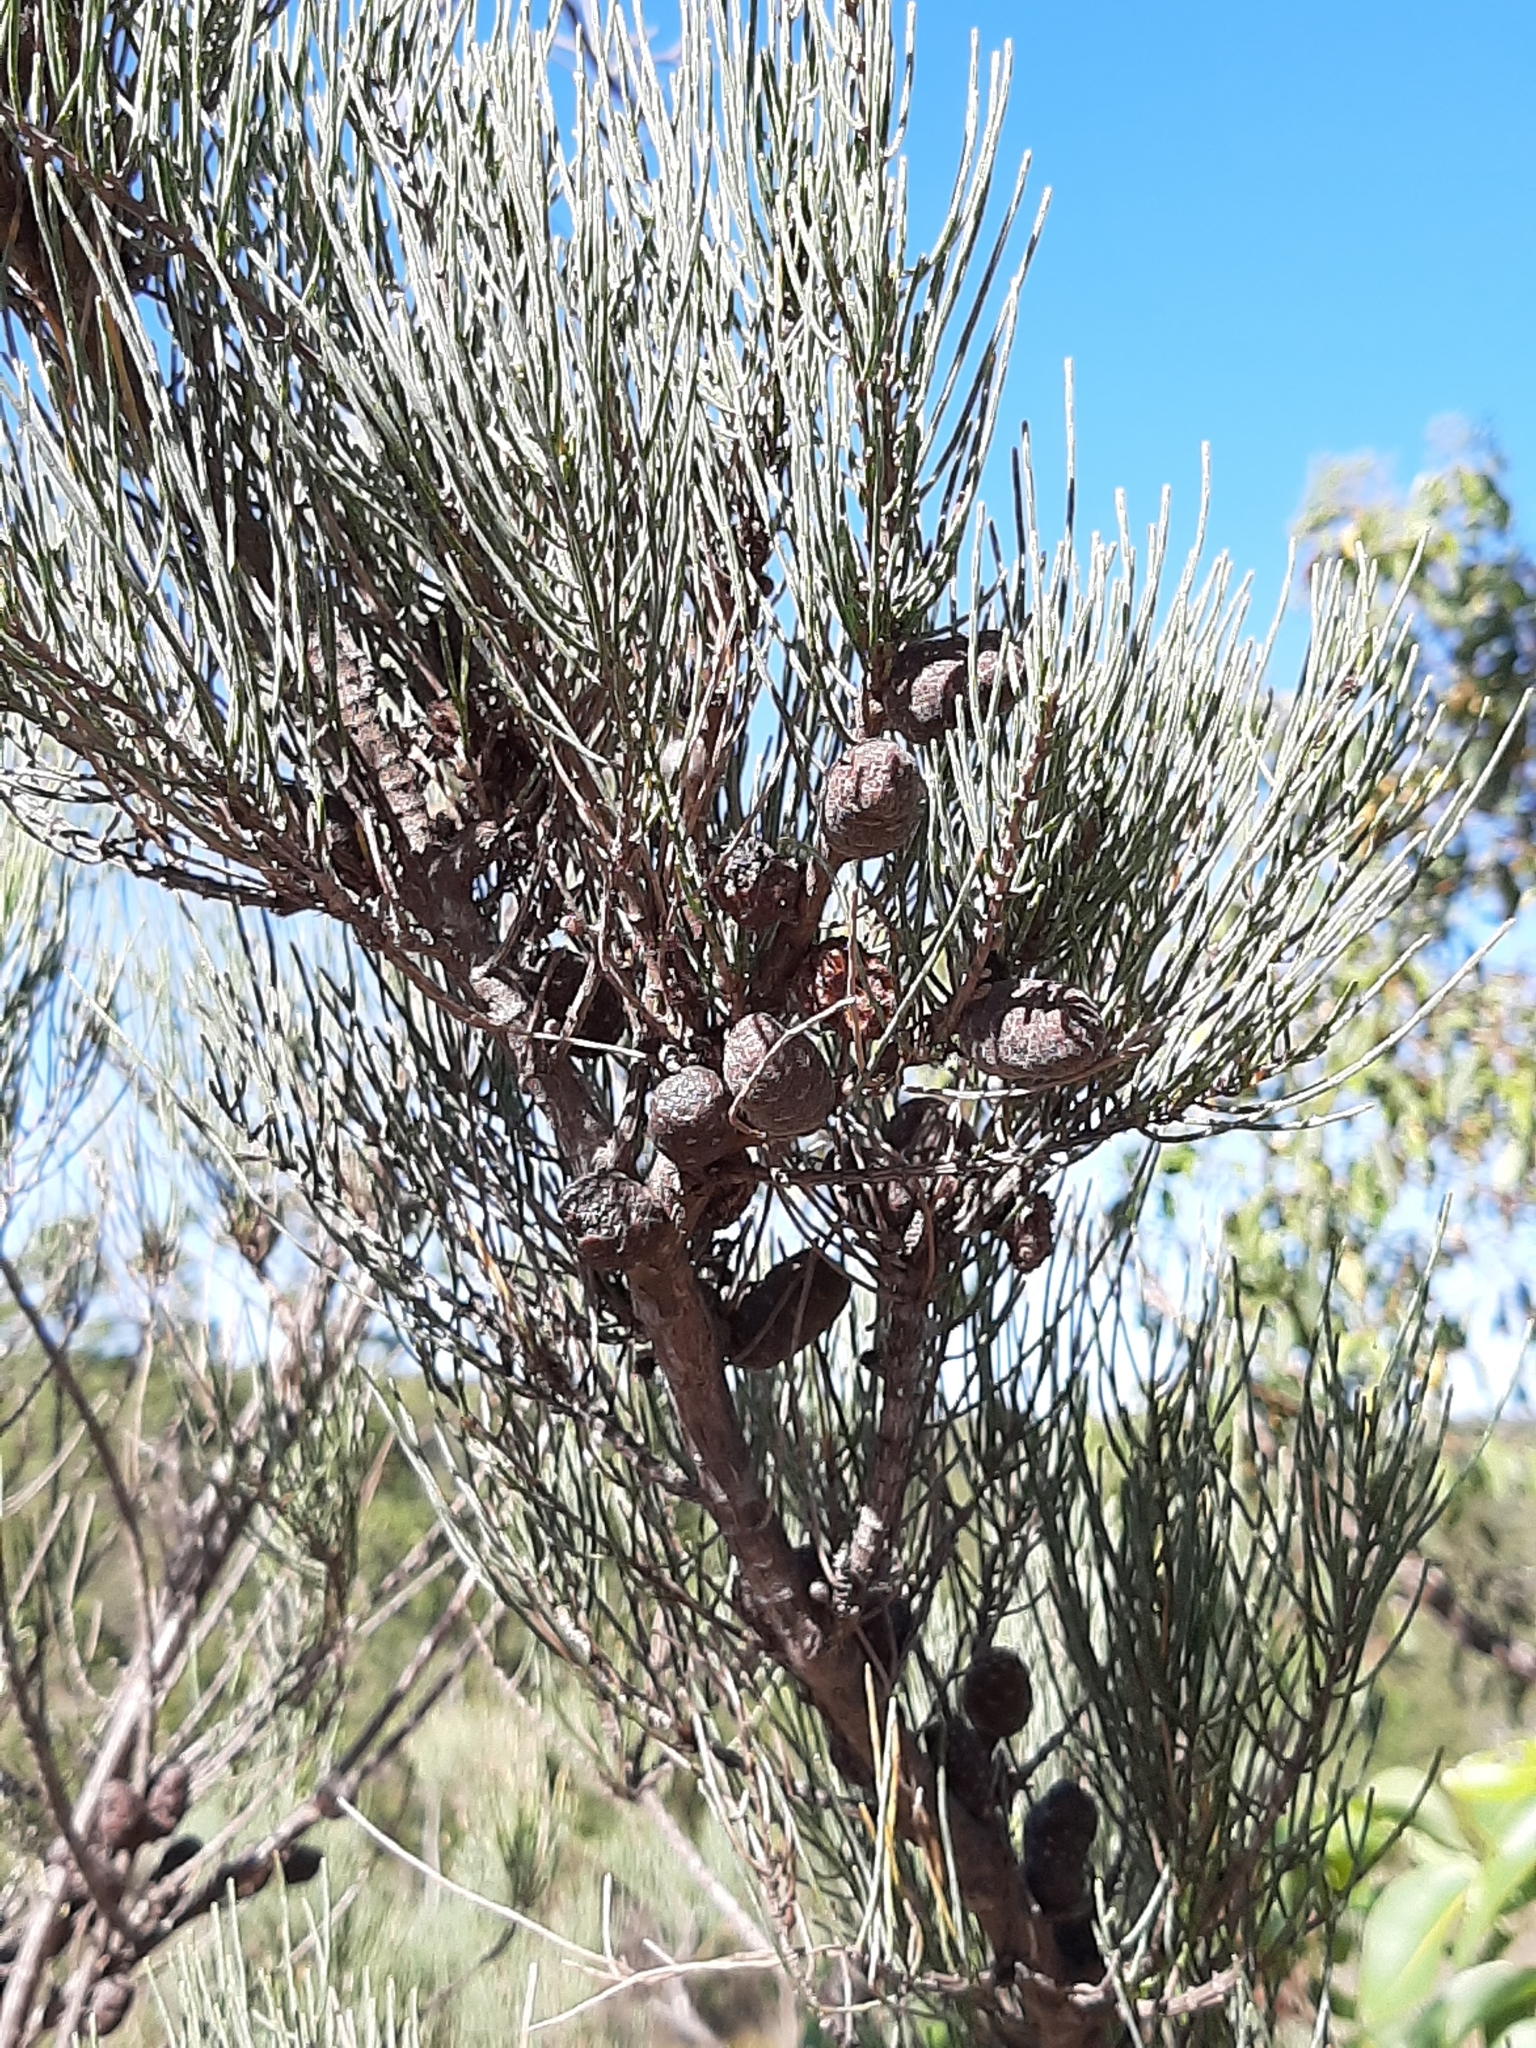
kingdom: Plantae
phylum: Tracheophyta
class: Magnoliopsida
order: Fagales
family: Casuarinaceae
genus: Allocasuarina
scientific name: Allocasuarina humilis
